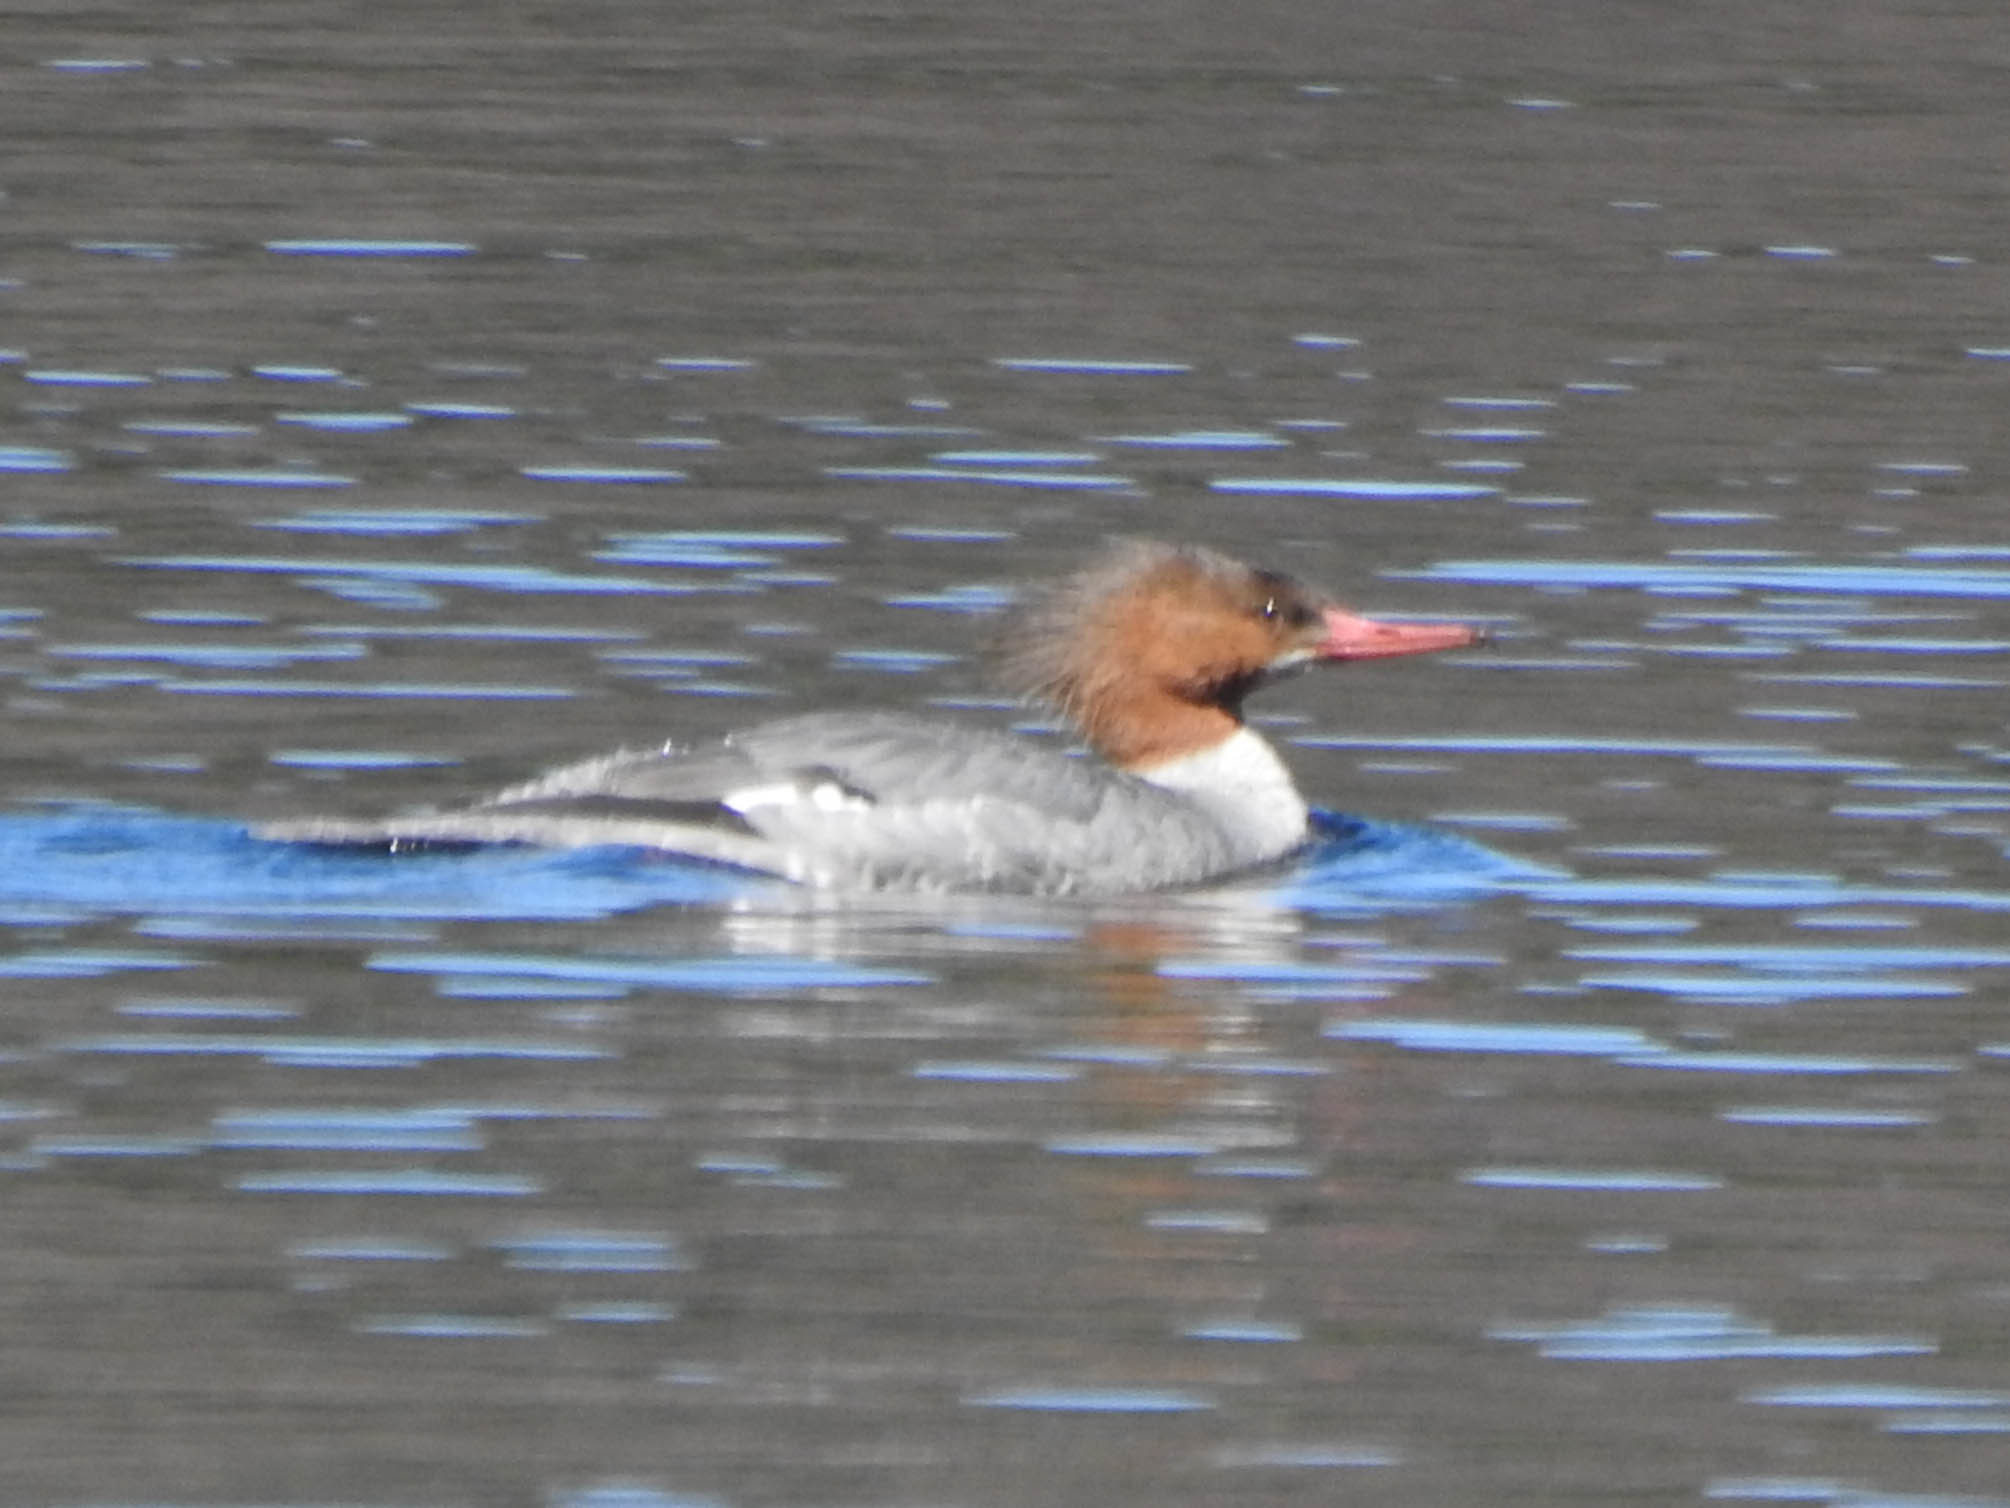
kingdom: Animalia
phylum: Chordata
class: Aves
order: Anseriformes
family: Anatidae
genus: Mergus
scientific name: Mergus merganser
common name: Common merganser
